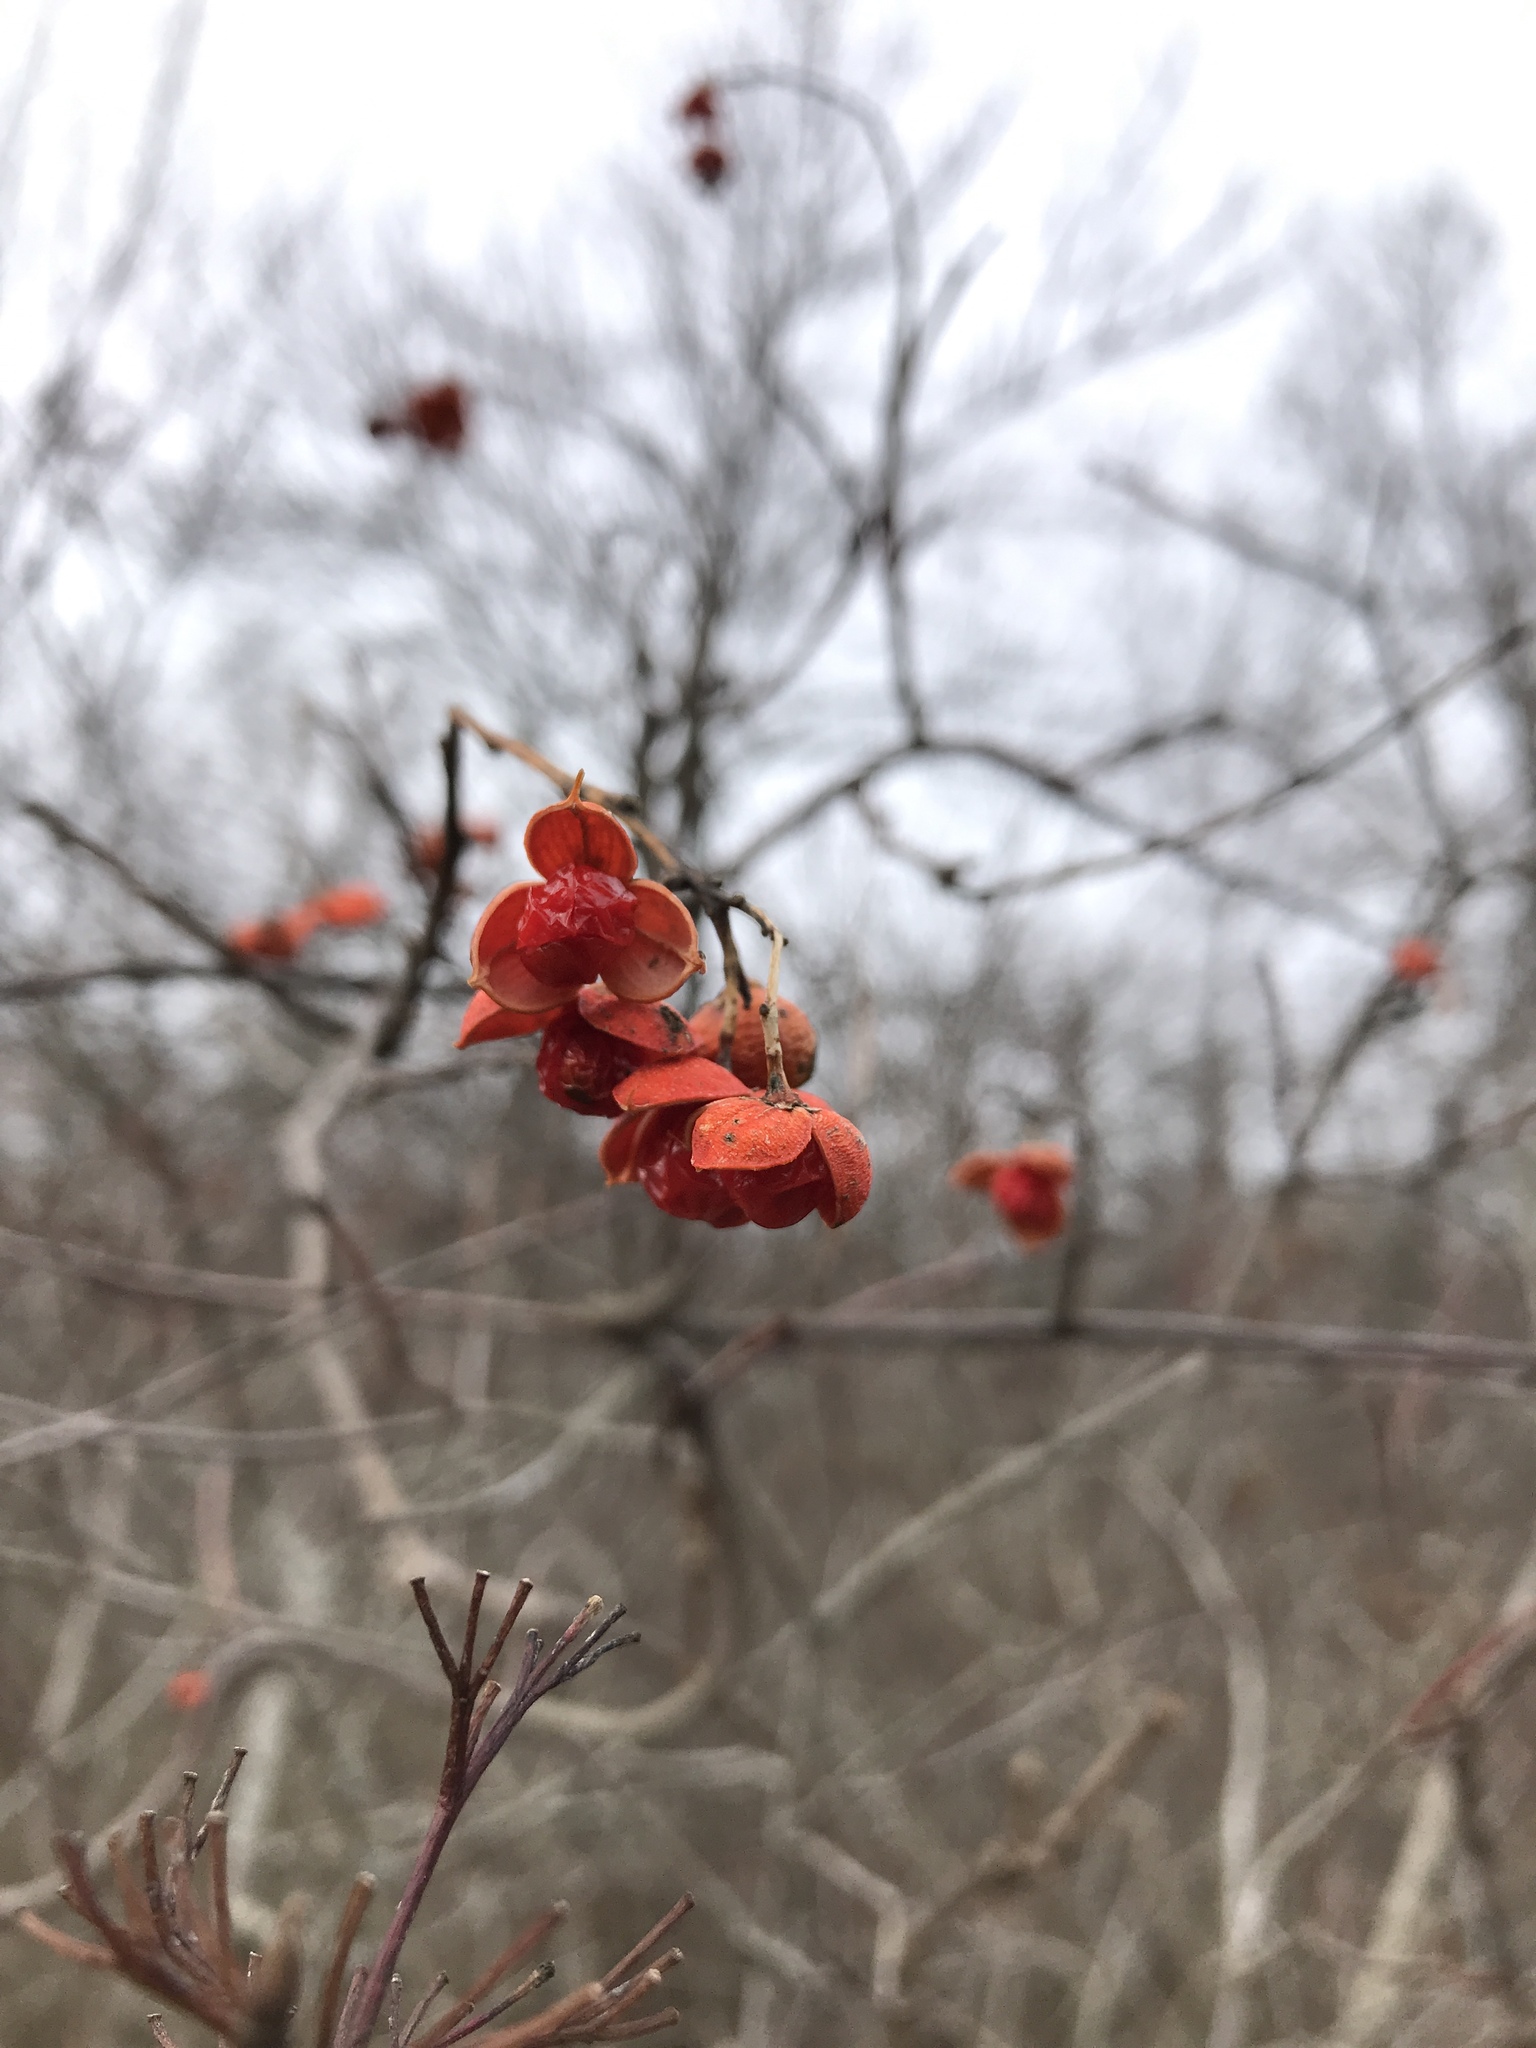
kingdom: Plantae
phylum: Tracheophyta
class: Magnoliopsida
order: Celastrales
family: Celastraceae
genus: Celastrus
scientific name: Celastrus scandens
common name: American bittersweet
